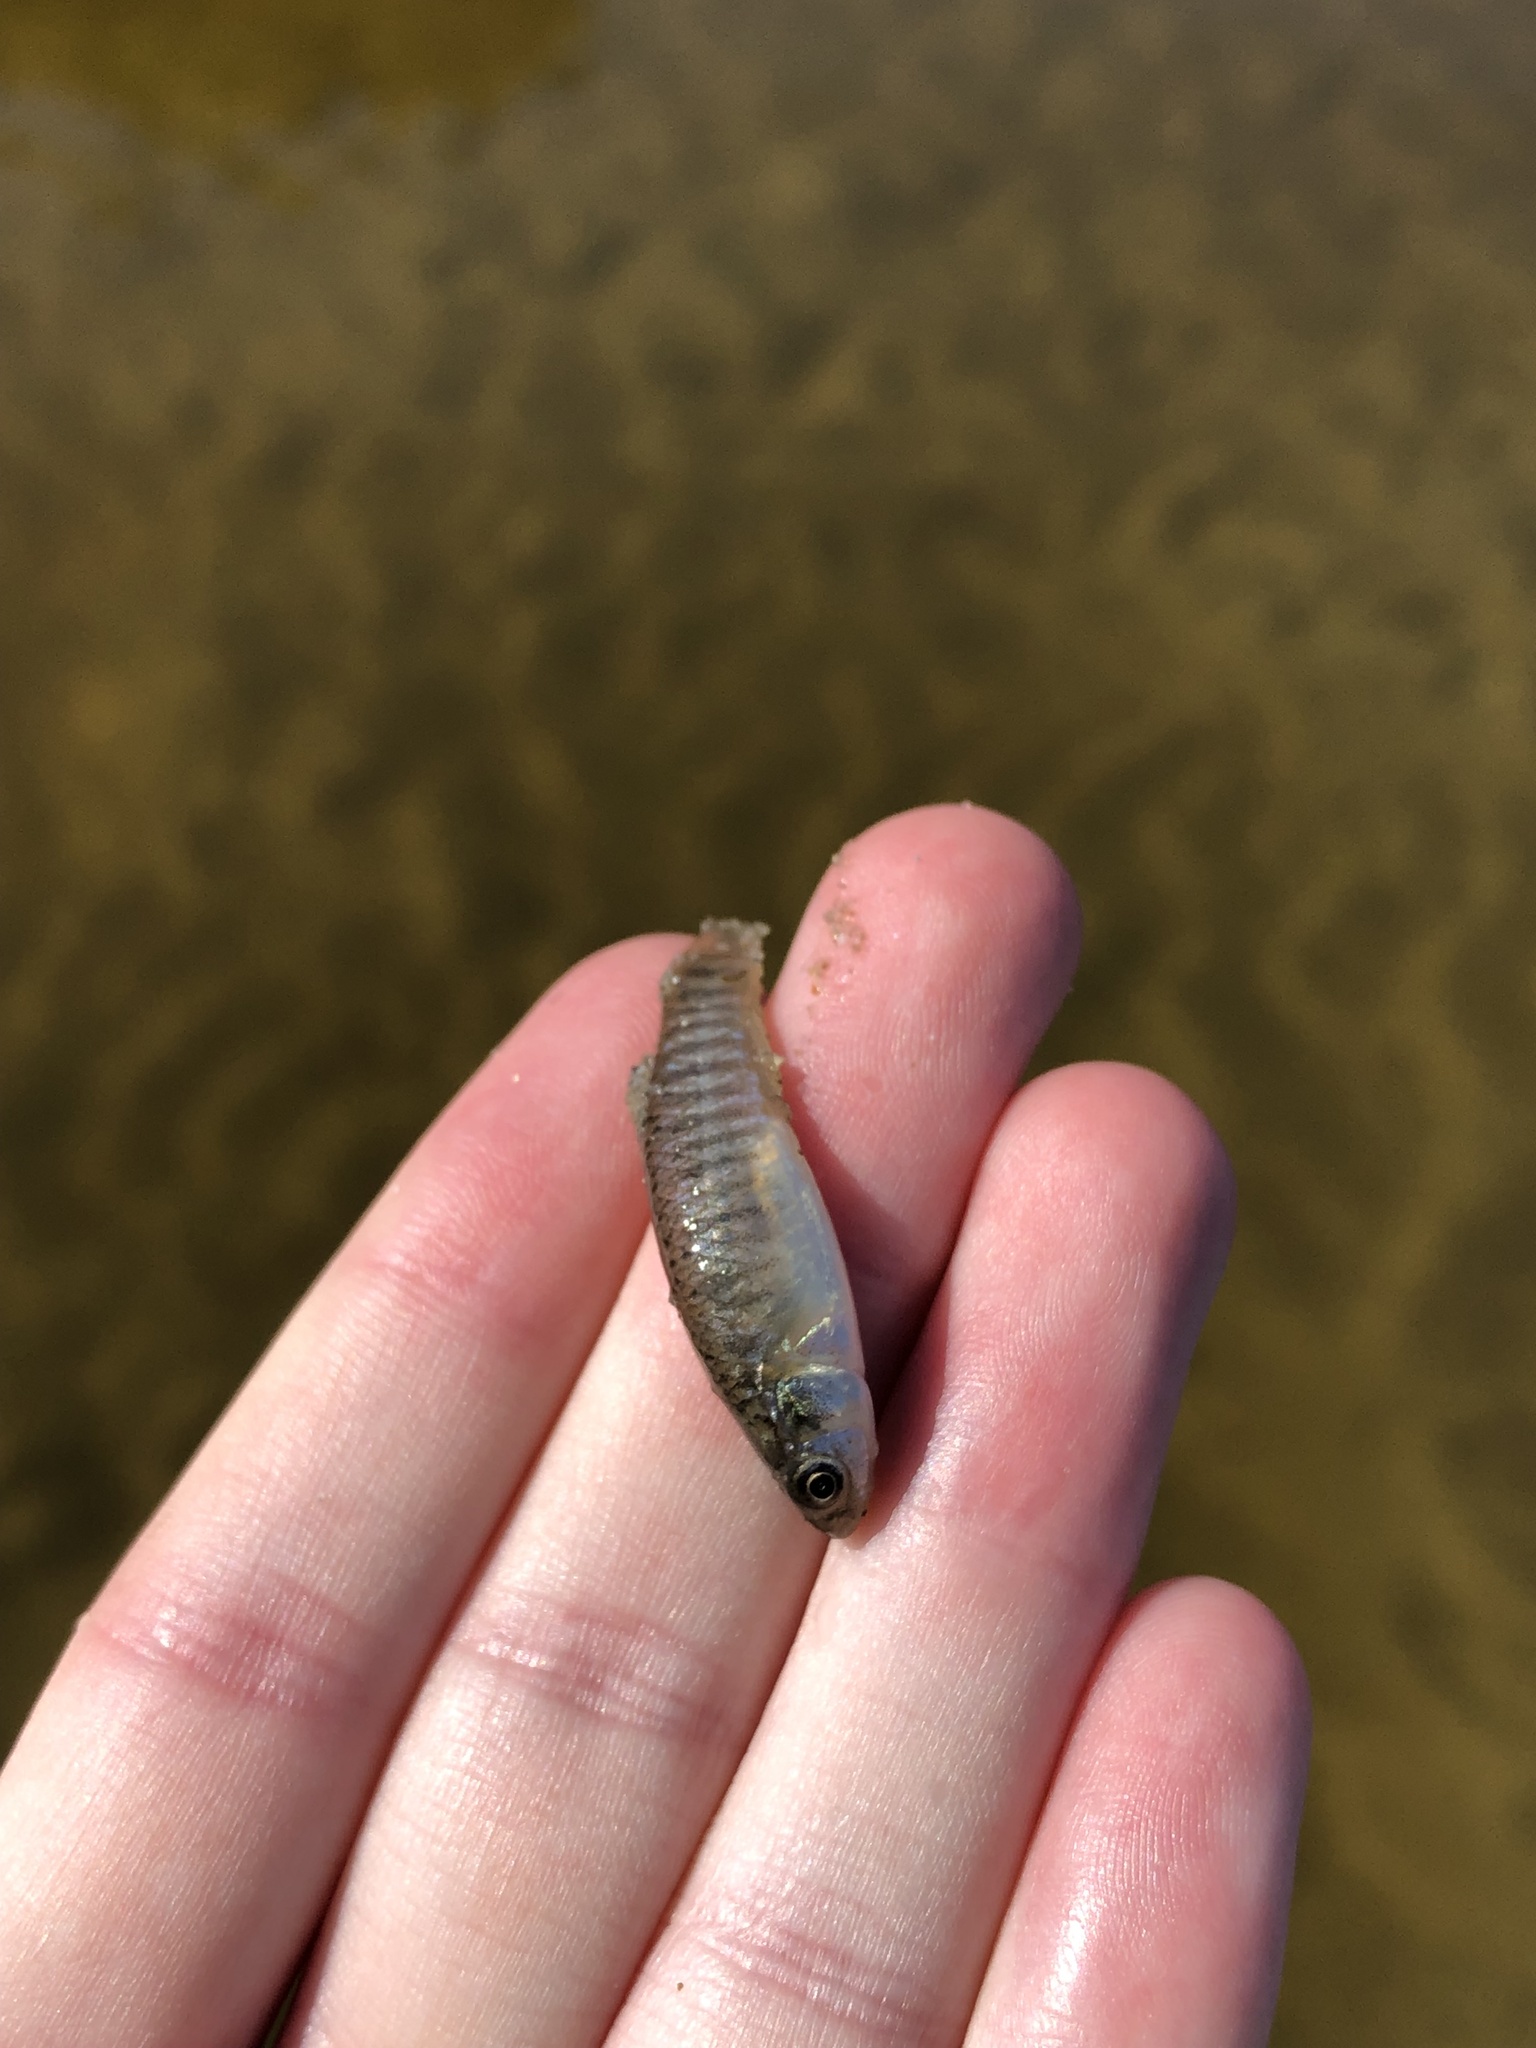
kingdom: Animalia
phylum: Chordata
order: Cyprinodontiformes
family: Fundulidae
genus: Fundulus
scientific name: Fundulus heteroclitus
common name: Mummichog
